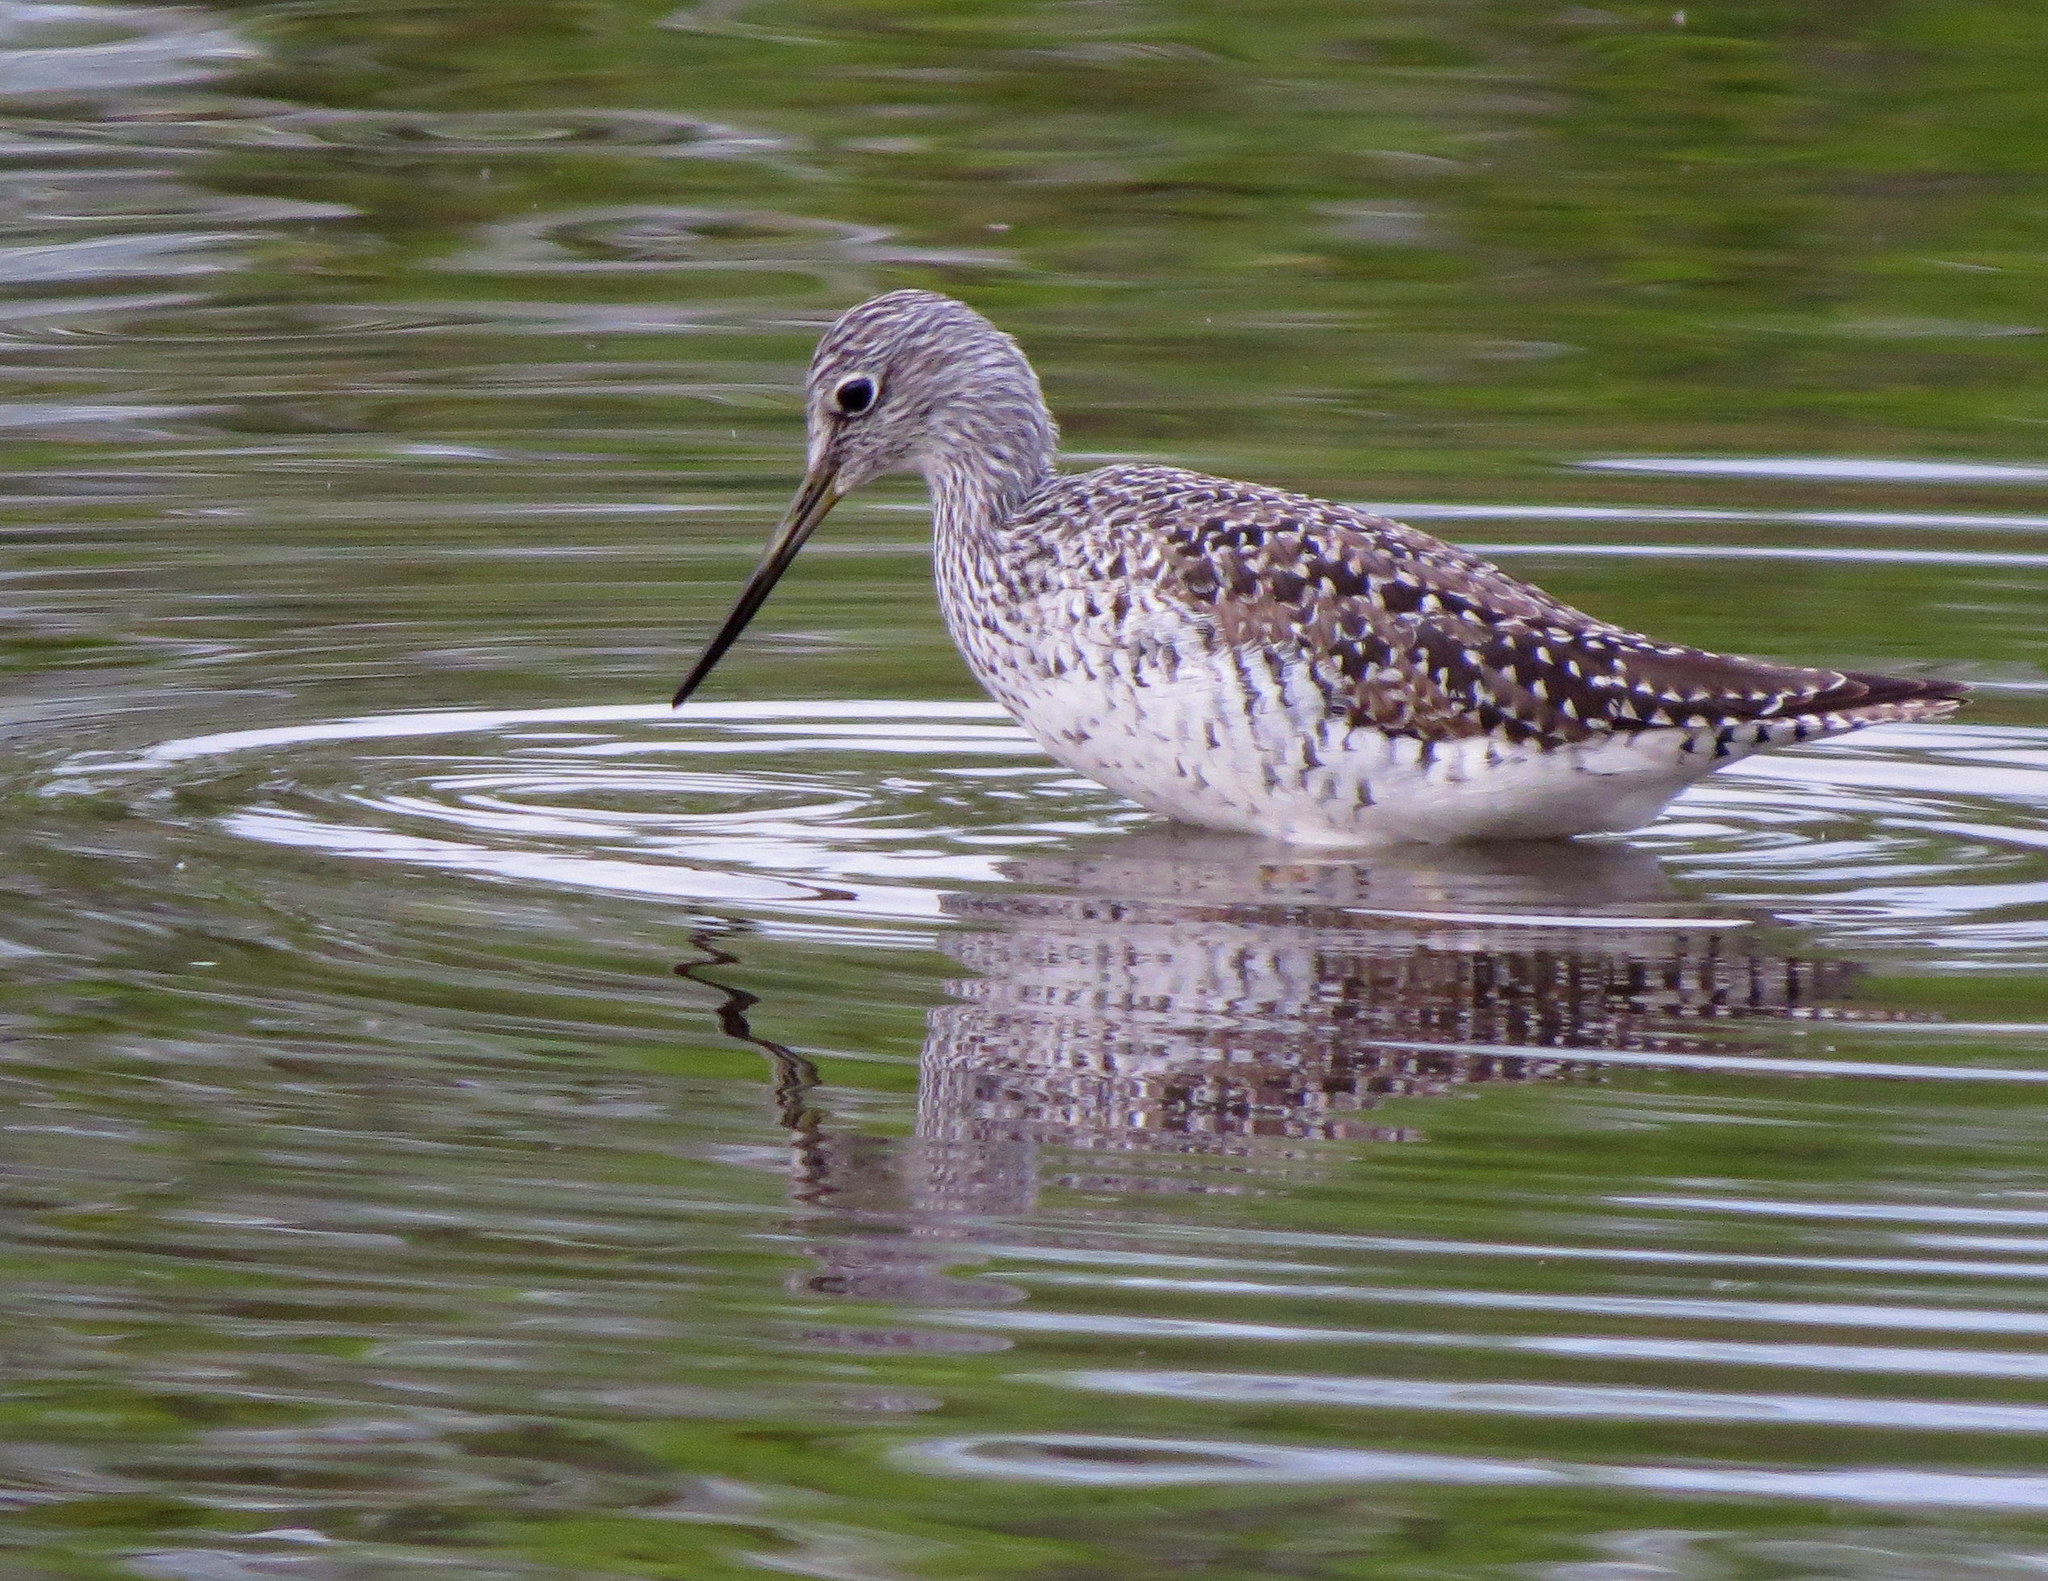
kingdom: Animalia
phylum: Chordata
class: Aves
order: Charadriiformes
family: Scolopacidae
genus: Tringa
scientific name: Tringa melanoleuca
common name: Greater yellowlegs
